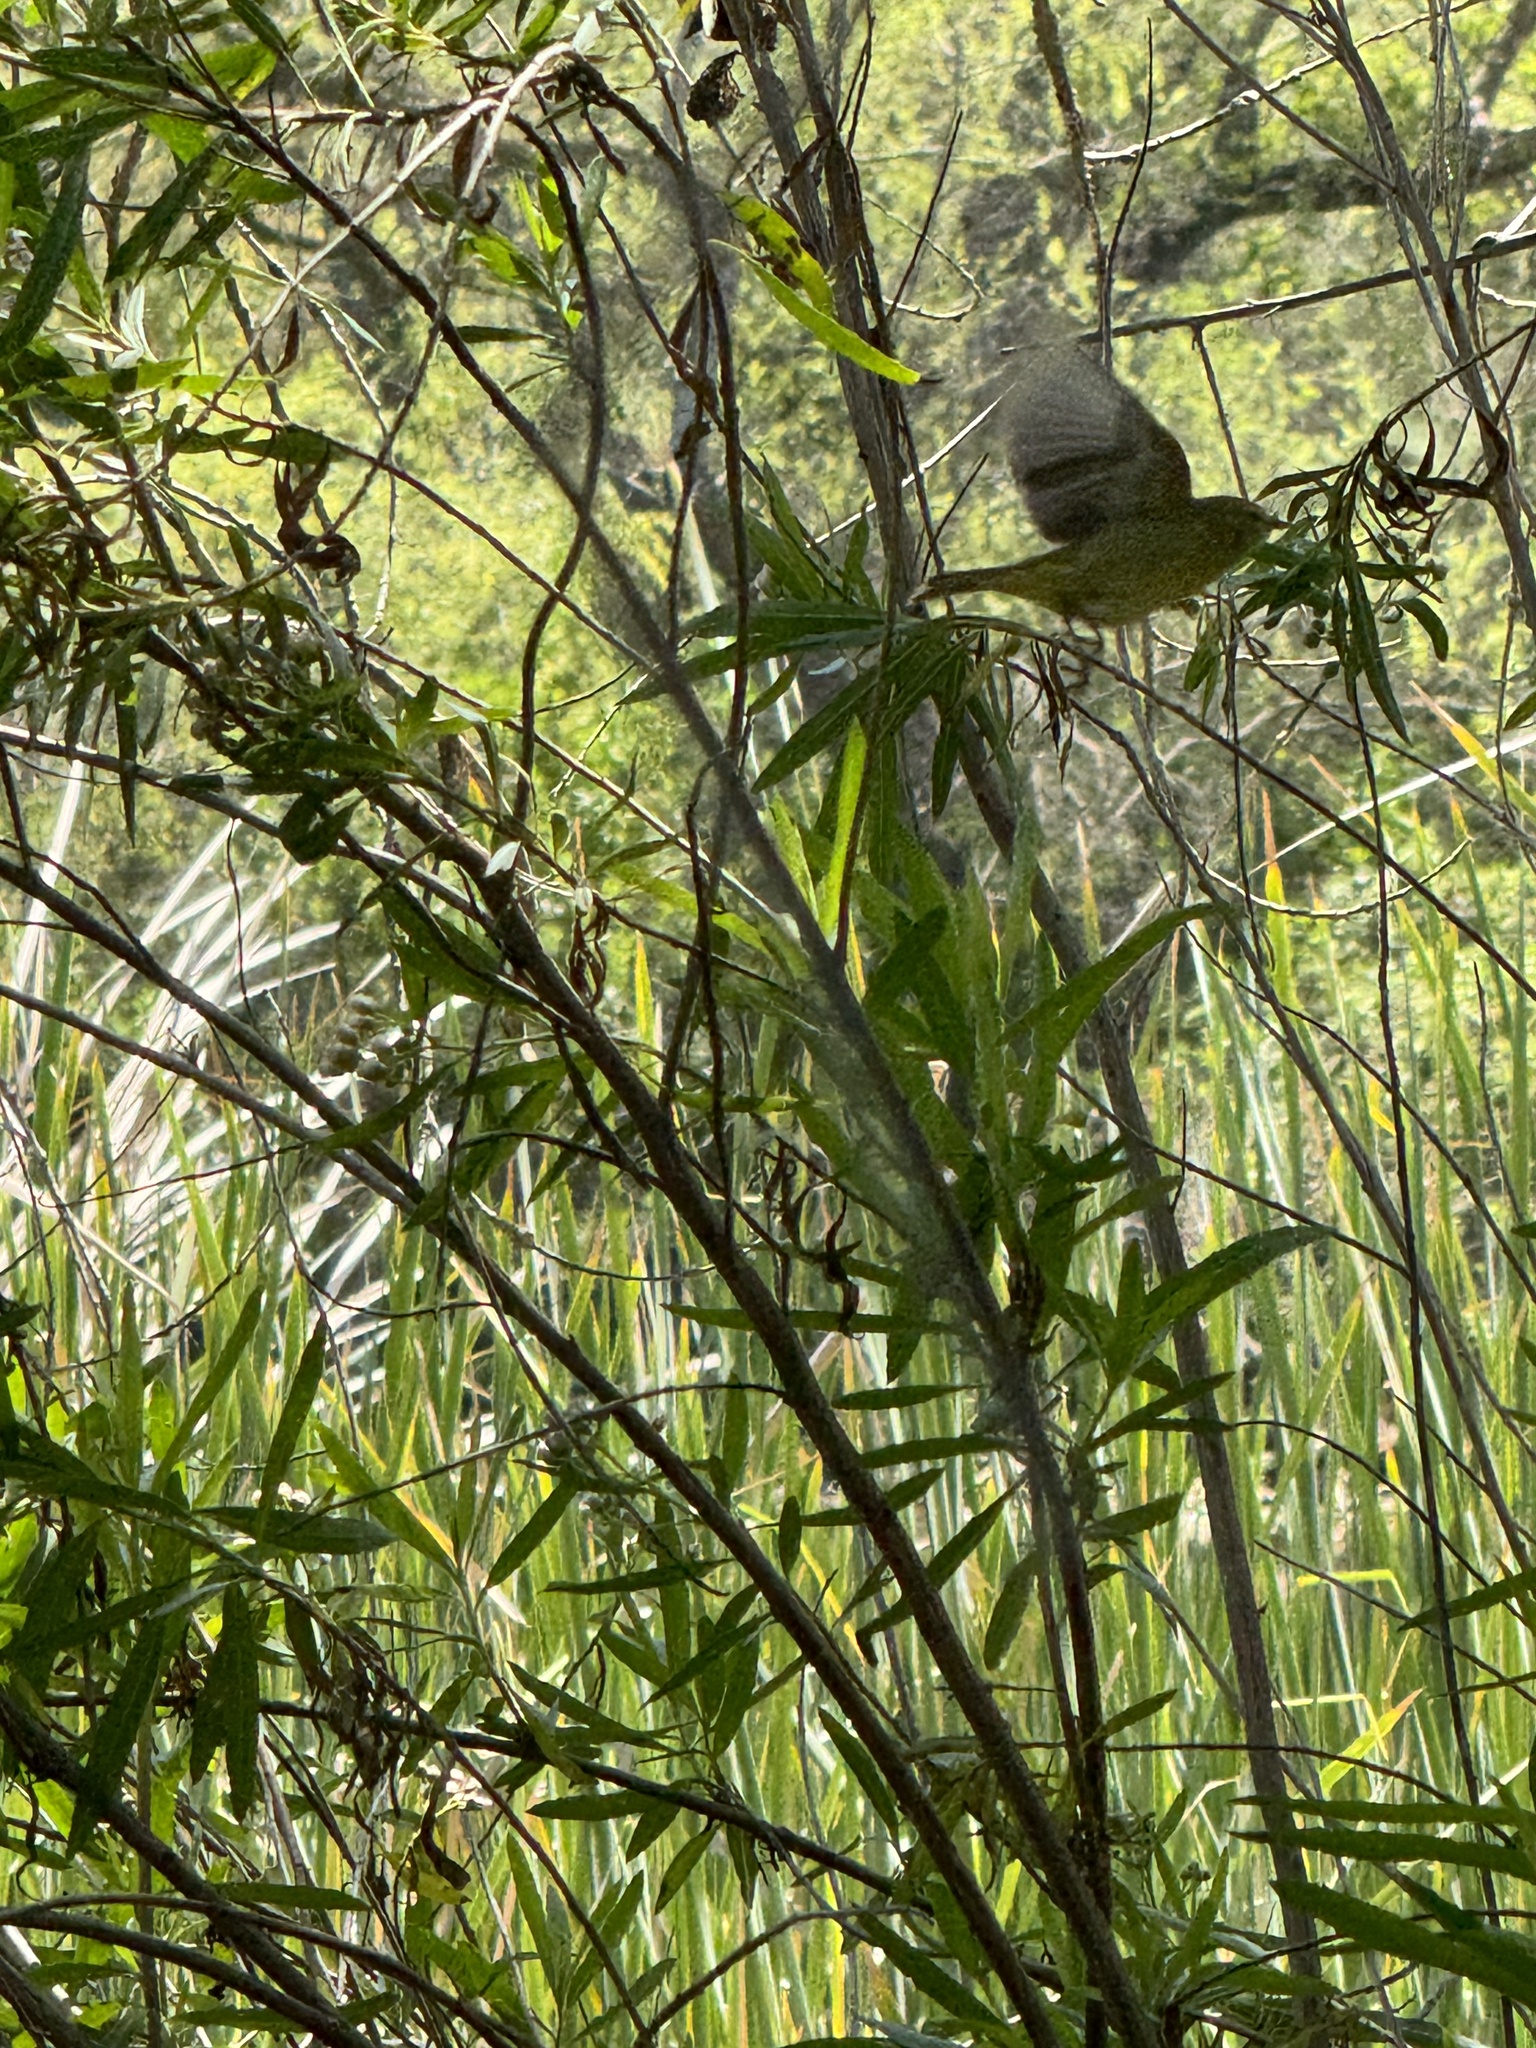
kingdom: Animalia
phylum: Chordata
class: Aves
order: Passeriformes
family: Parulidae
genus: Leiothlypis
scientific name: Leiothlypis celata
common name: Orange-crowned warbler
